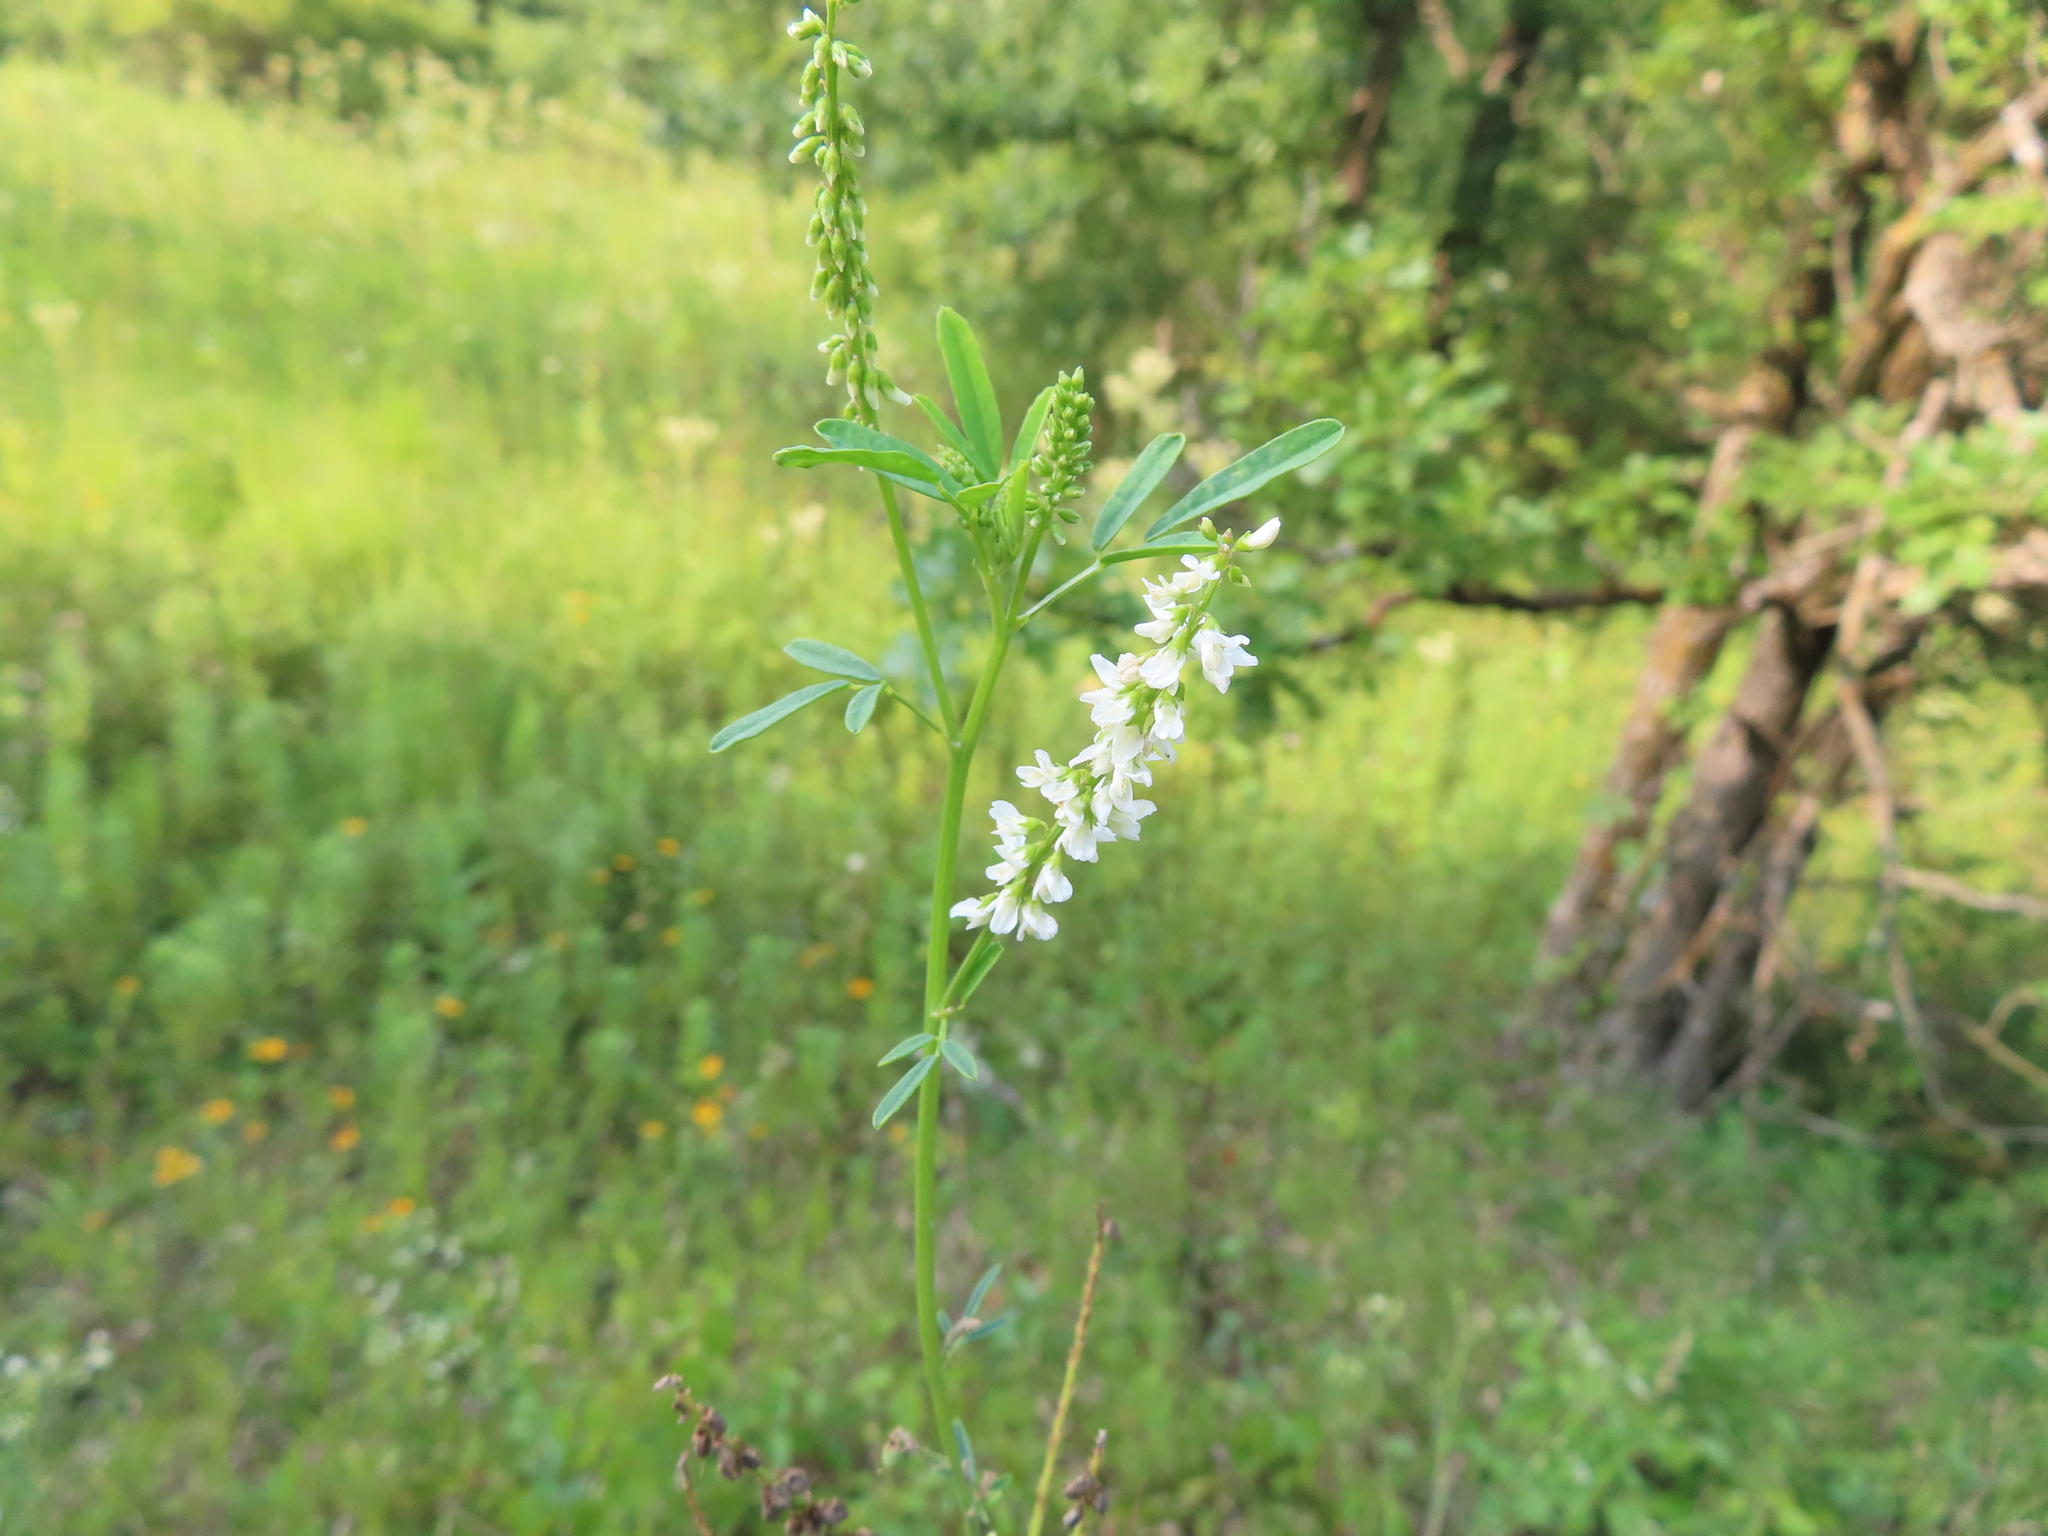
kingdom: Plantae
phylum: Tracheophyta
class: Magnoliopsida
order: Fabales
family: Fabaceae
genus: Melilotus
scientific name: Melilotus albus
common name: White melilot
